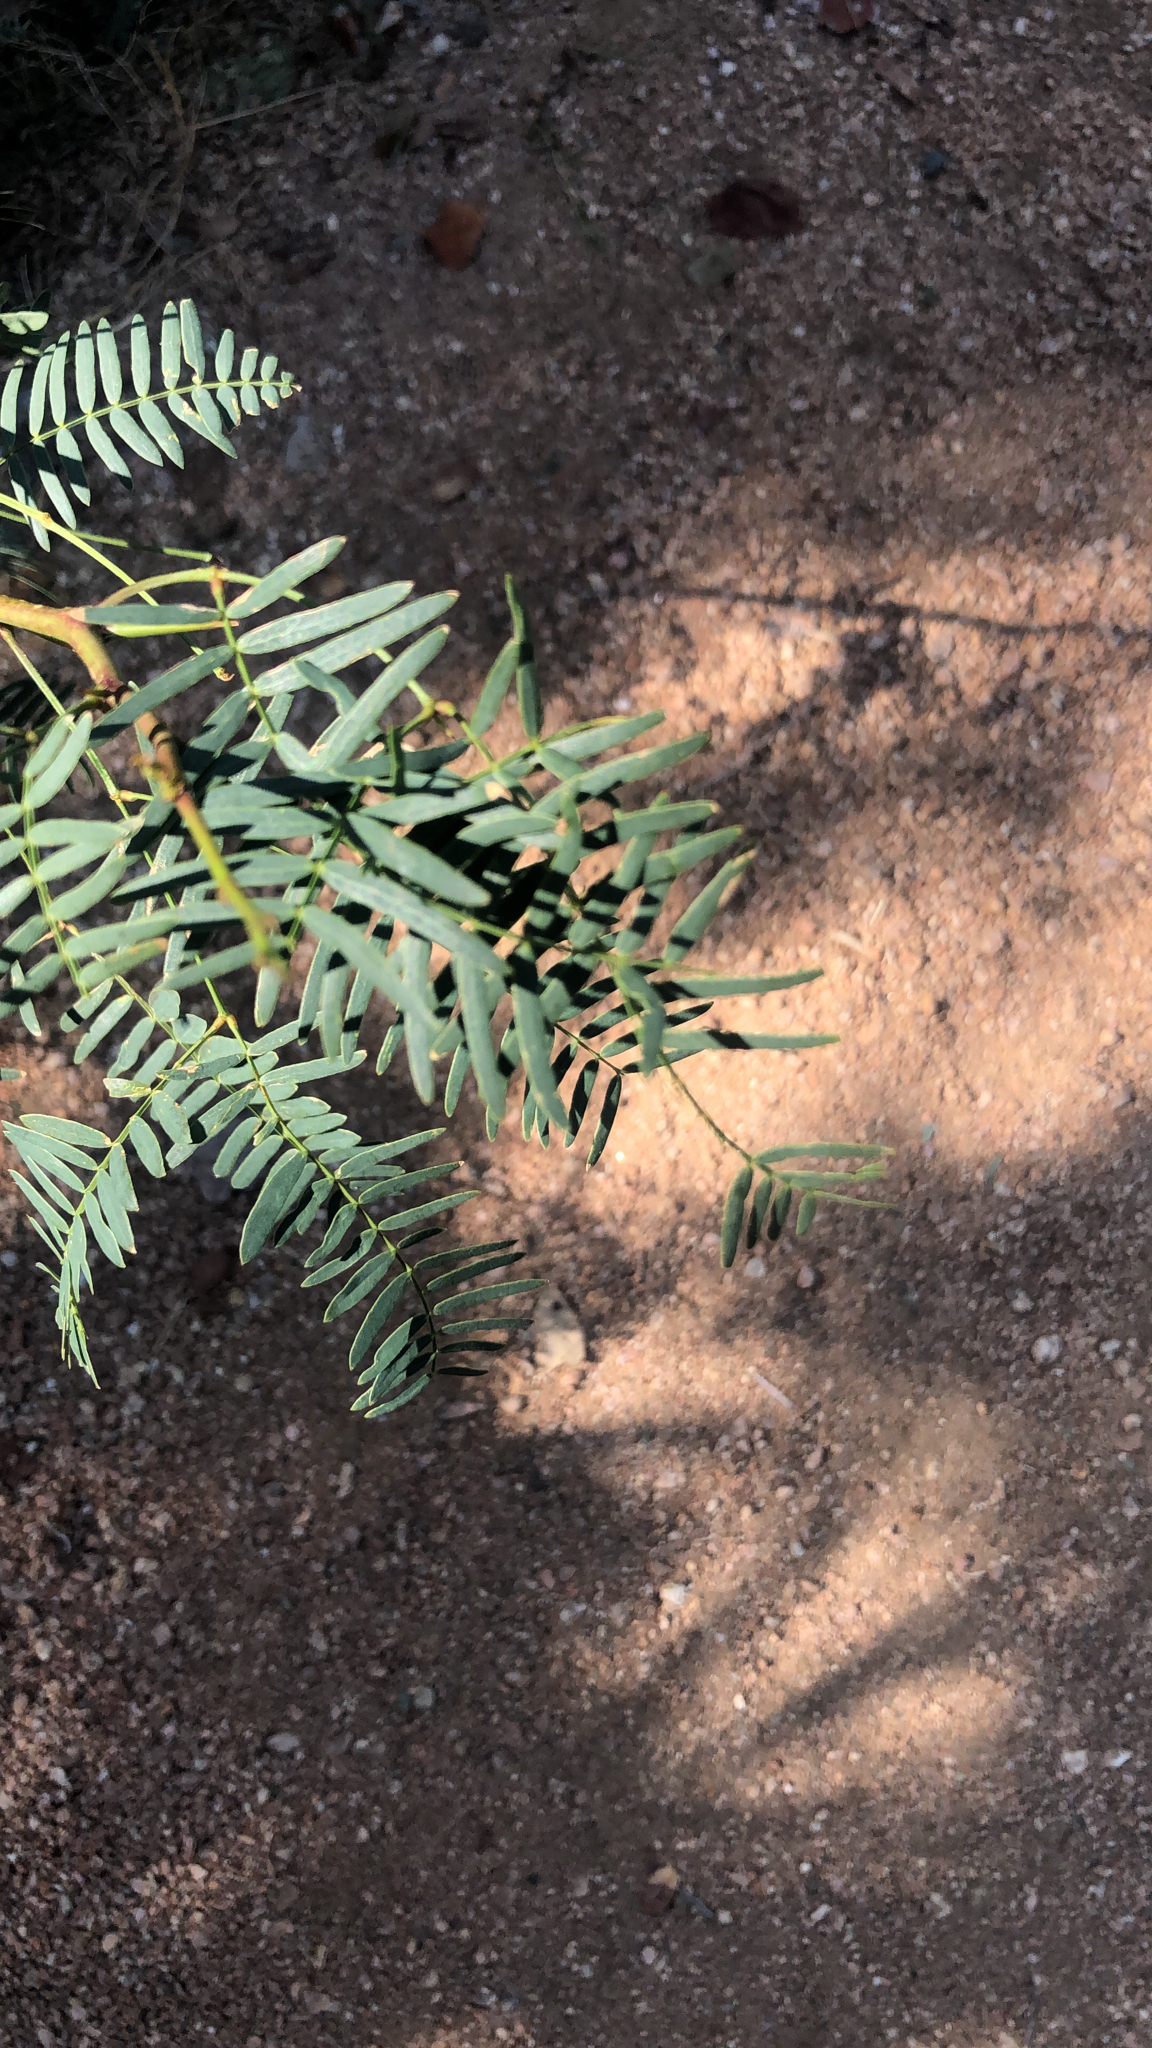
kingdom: Plantae
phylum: Tracheophyta
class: Magnoliopsida
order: Fabales
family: Fabaceae
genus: Prosopis
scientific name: Prosopis glandulosa
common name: Honey mesquite
